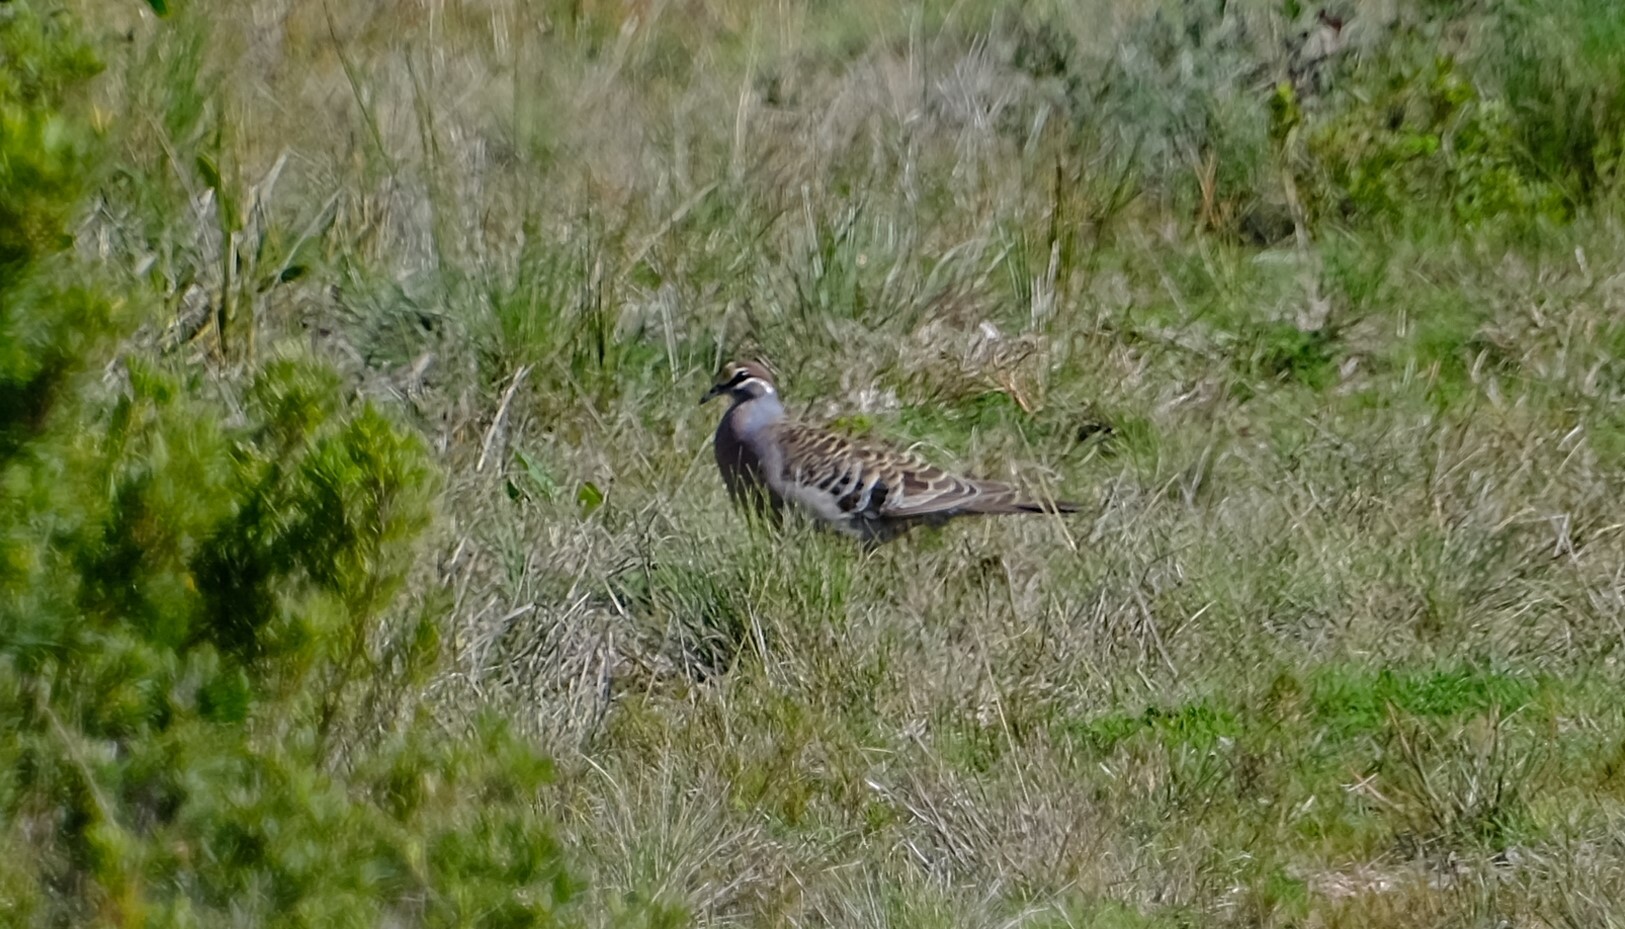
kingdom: Animalia
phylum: Chordata
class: Aves
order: Columbiformes
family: Columbidae
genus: Phaps
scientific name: Phaps chalcoptera
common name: Common bronzewing
